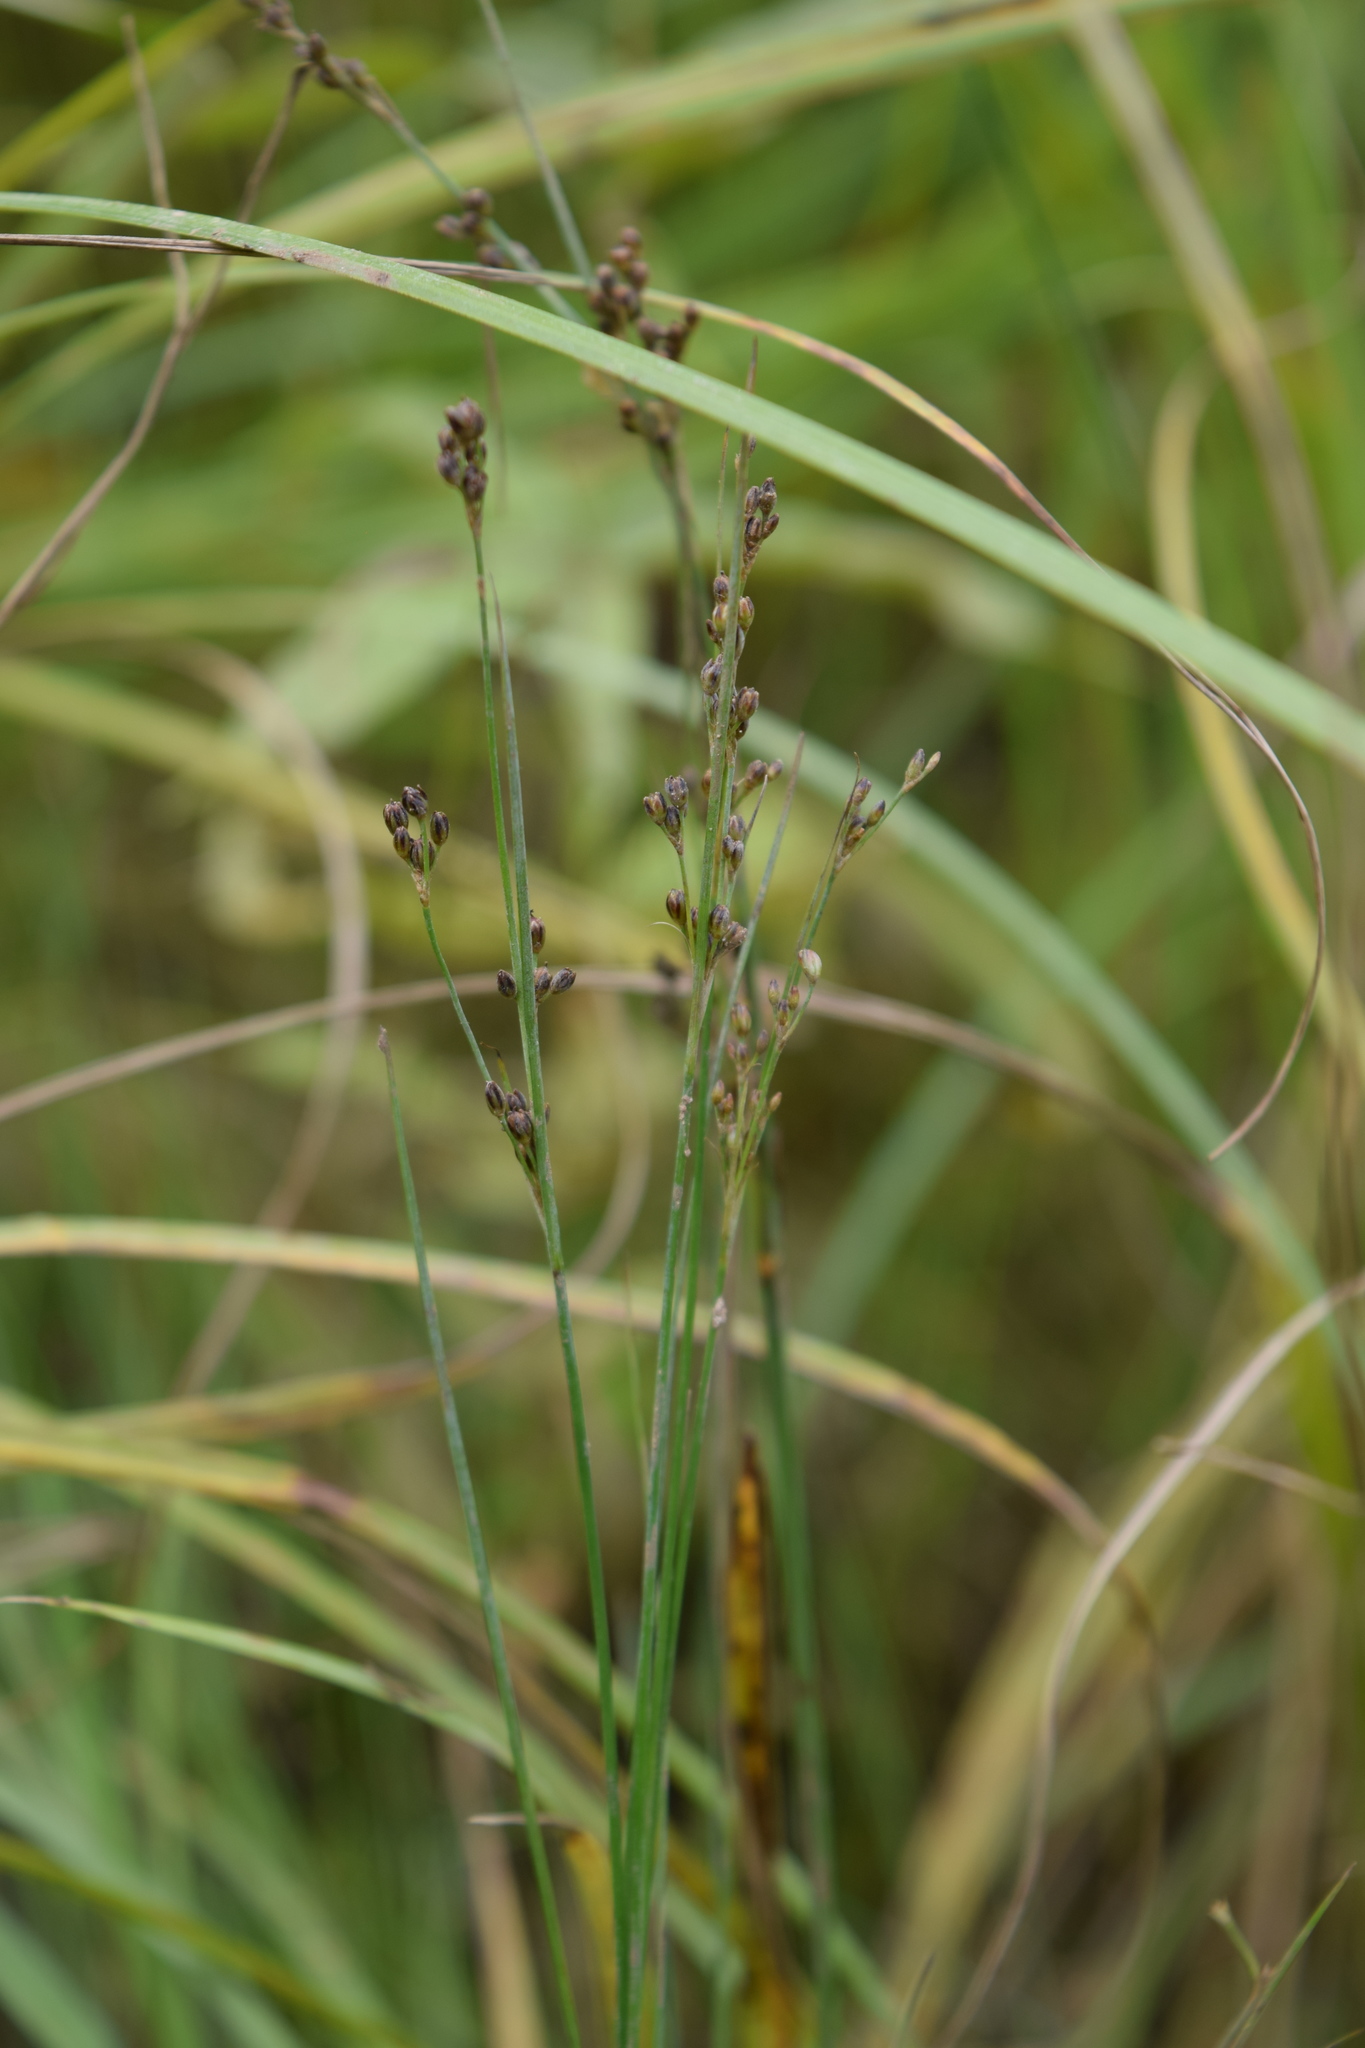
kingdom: Plantae
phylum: Tracheophyta
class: Liliopsida
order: Poales
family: Juncaceae
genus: Juncus
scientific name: Juncus compressus
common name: Round-fruited rush
